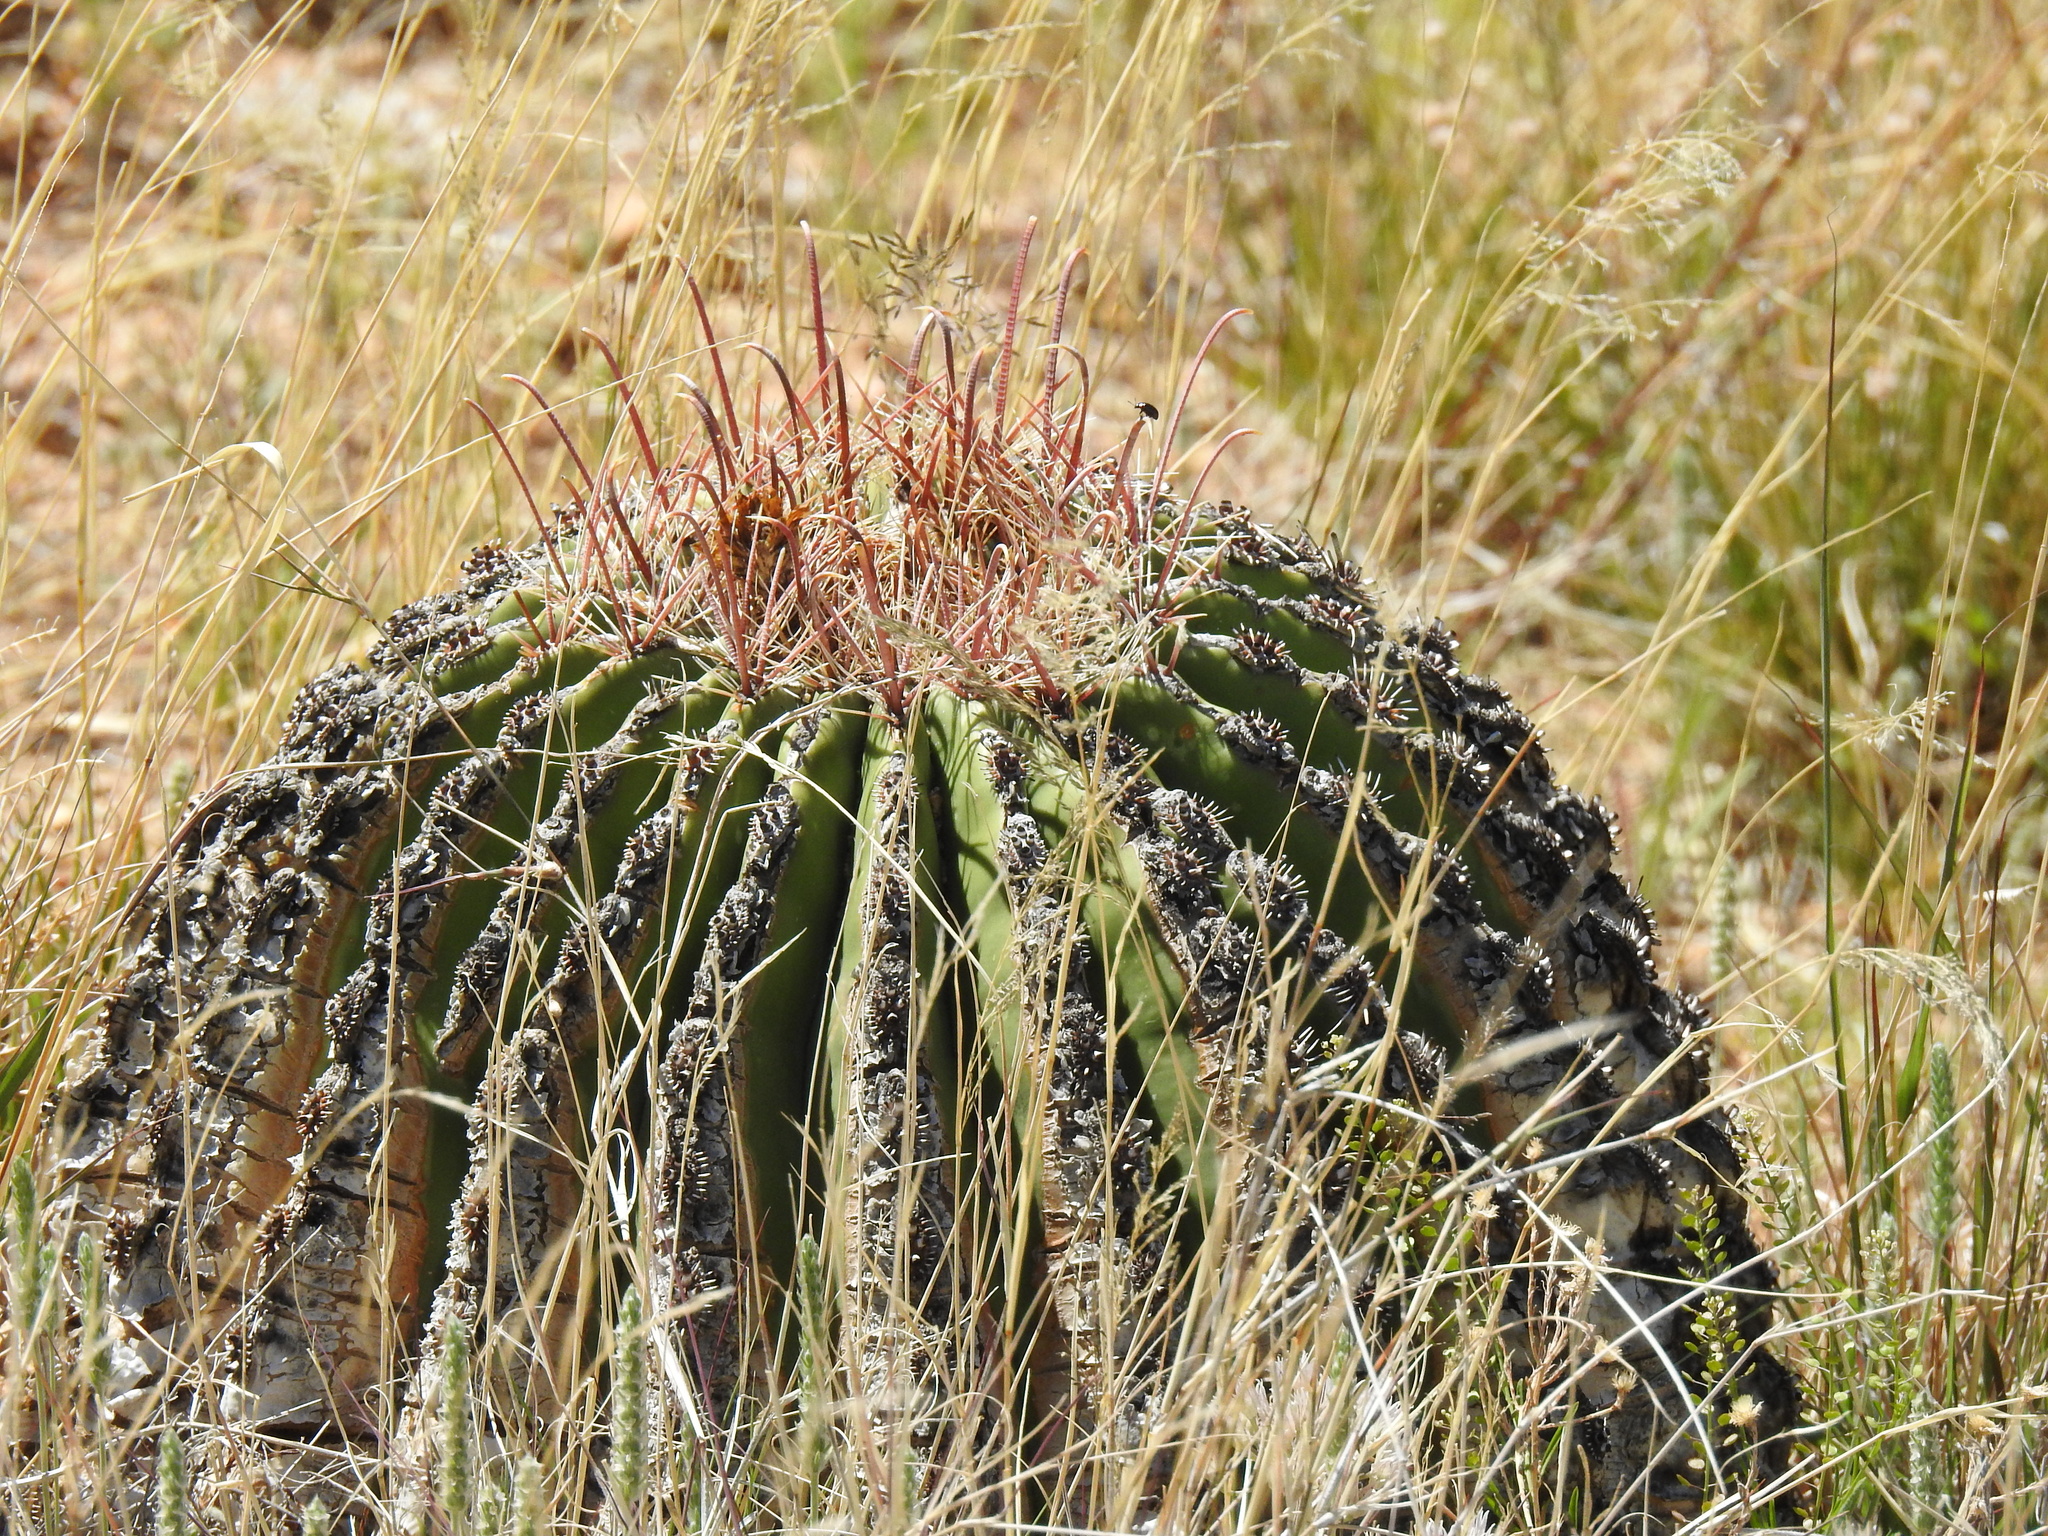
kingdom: Plantae
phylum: Tracheophyta
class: Magnoliopsida
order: Caryophyllales
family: Cactaceae
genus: Ferocactus
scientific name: Ferocactus wislizeni
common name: Candy barrel cactus
